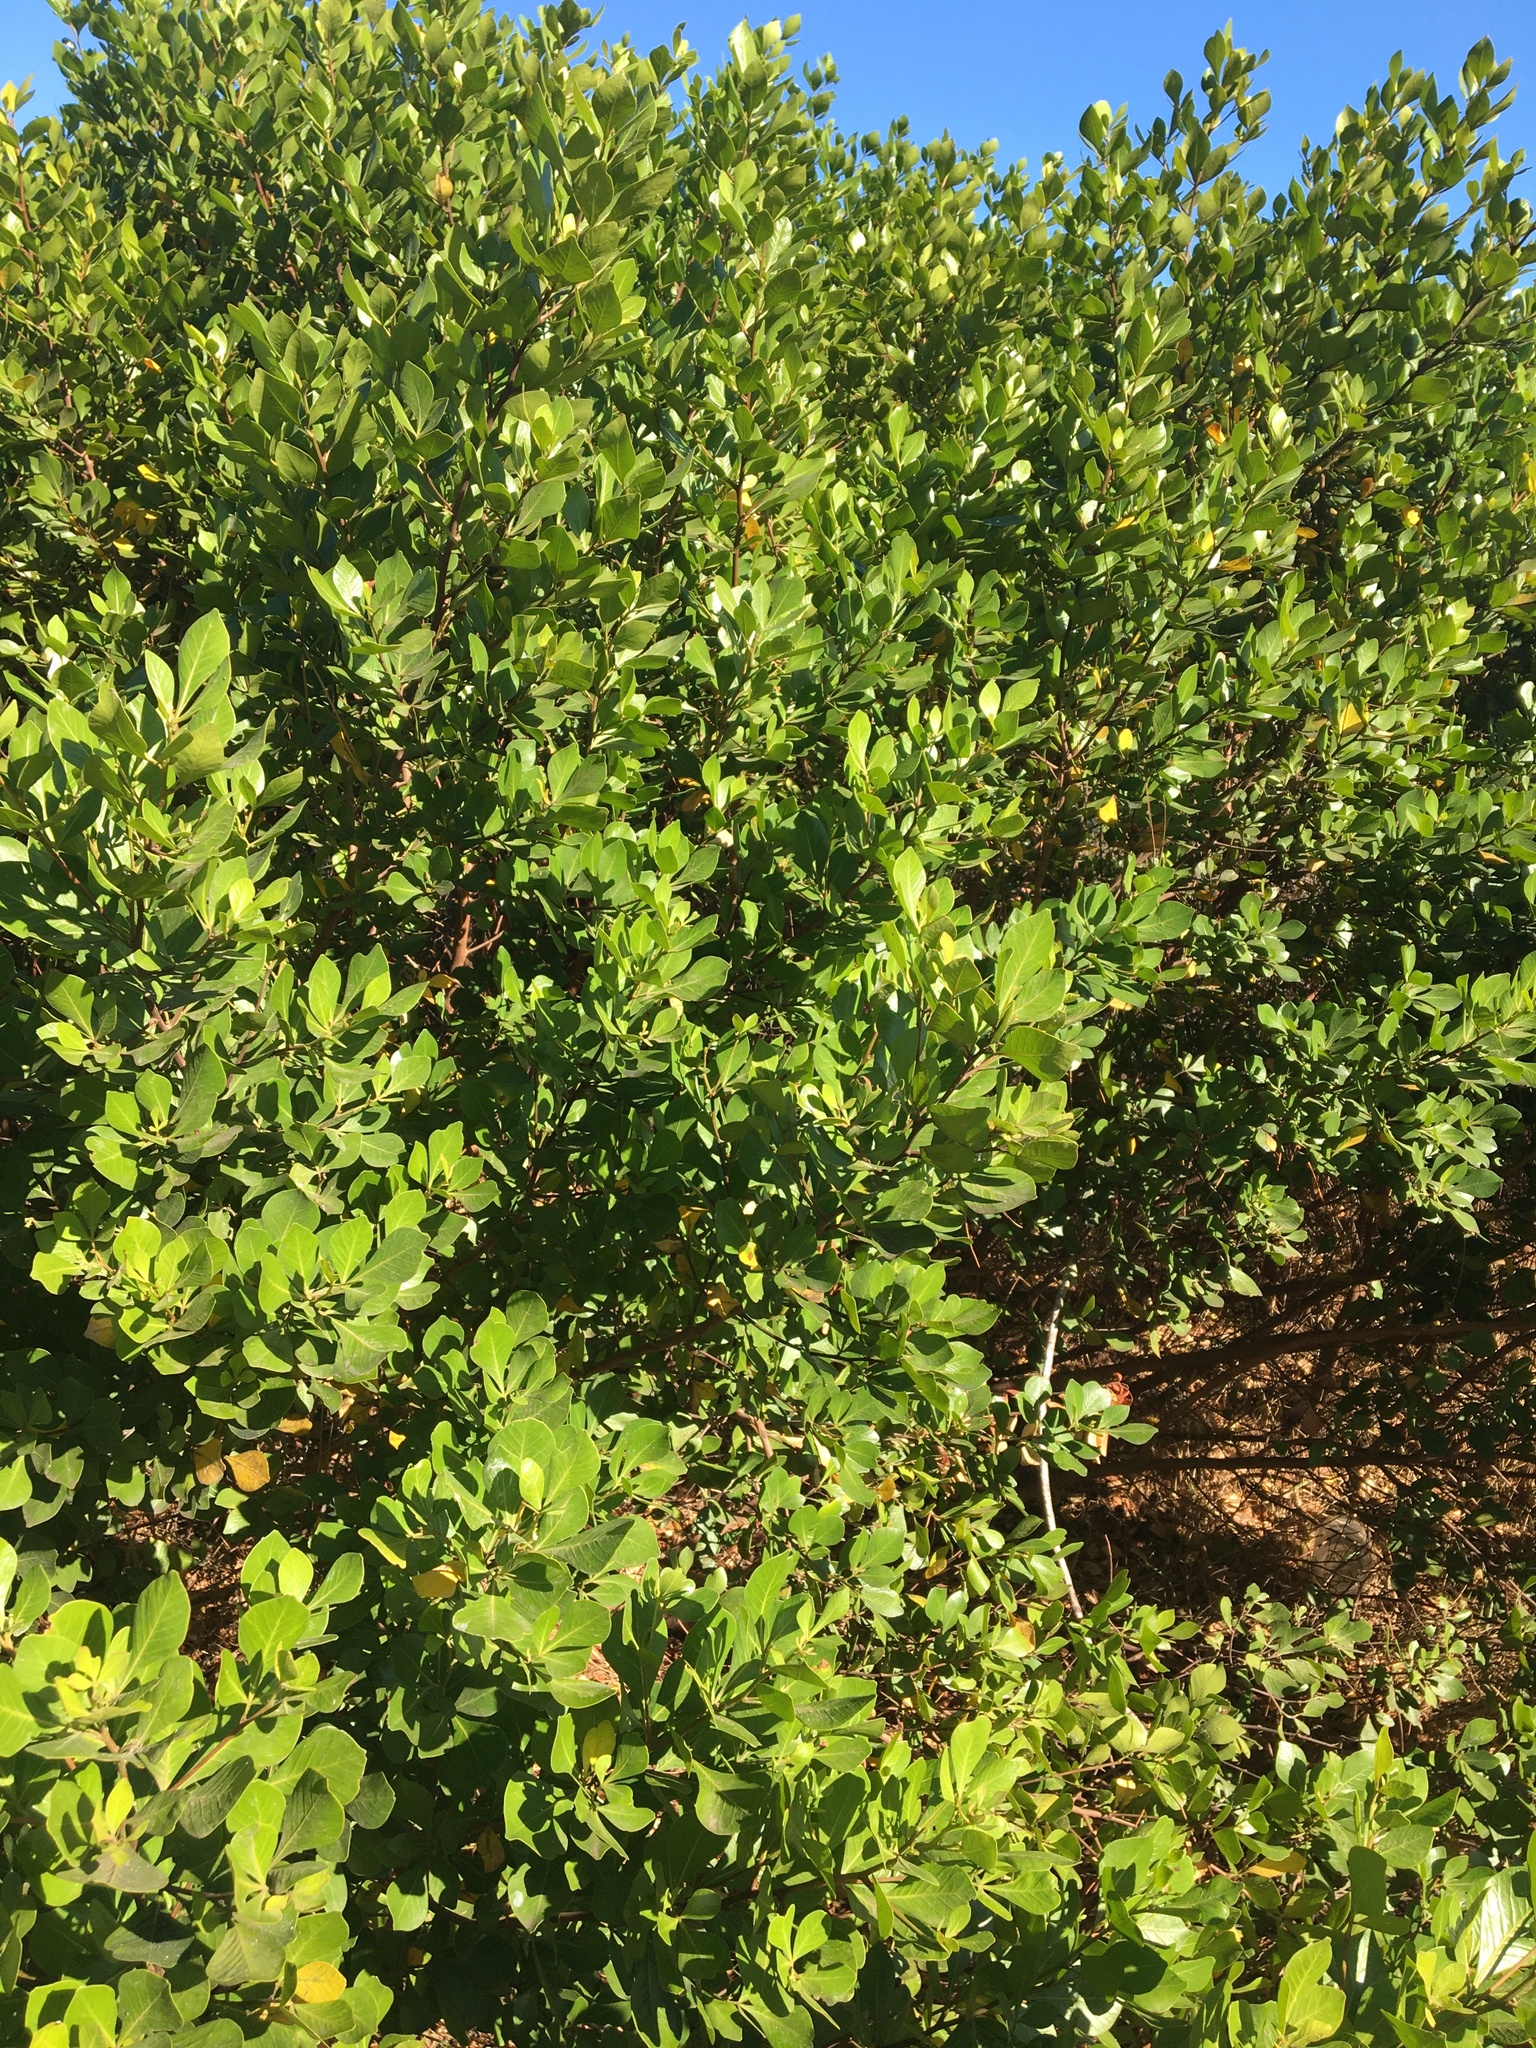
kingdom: Plantae
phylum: Tracheophyta
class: Magnoliopsida
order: Sapindales
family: Anacardiaceae
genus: Searsia
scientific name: Searsia lucida
